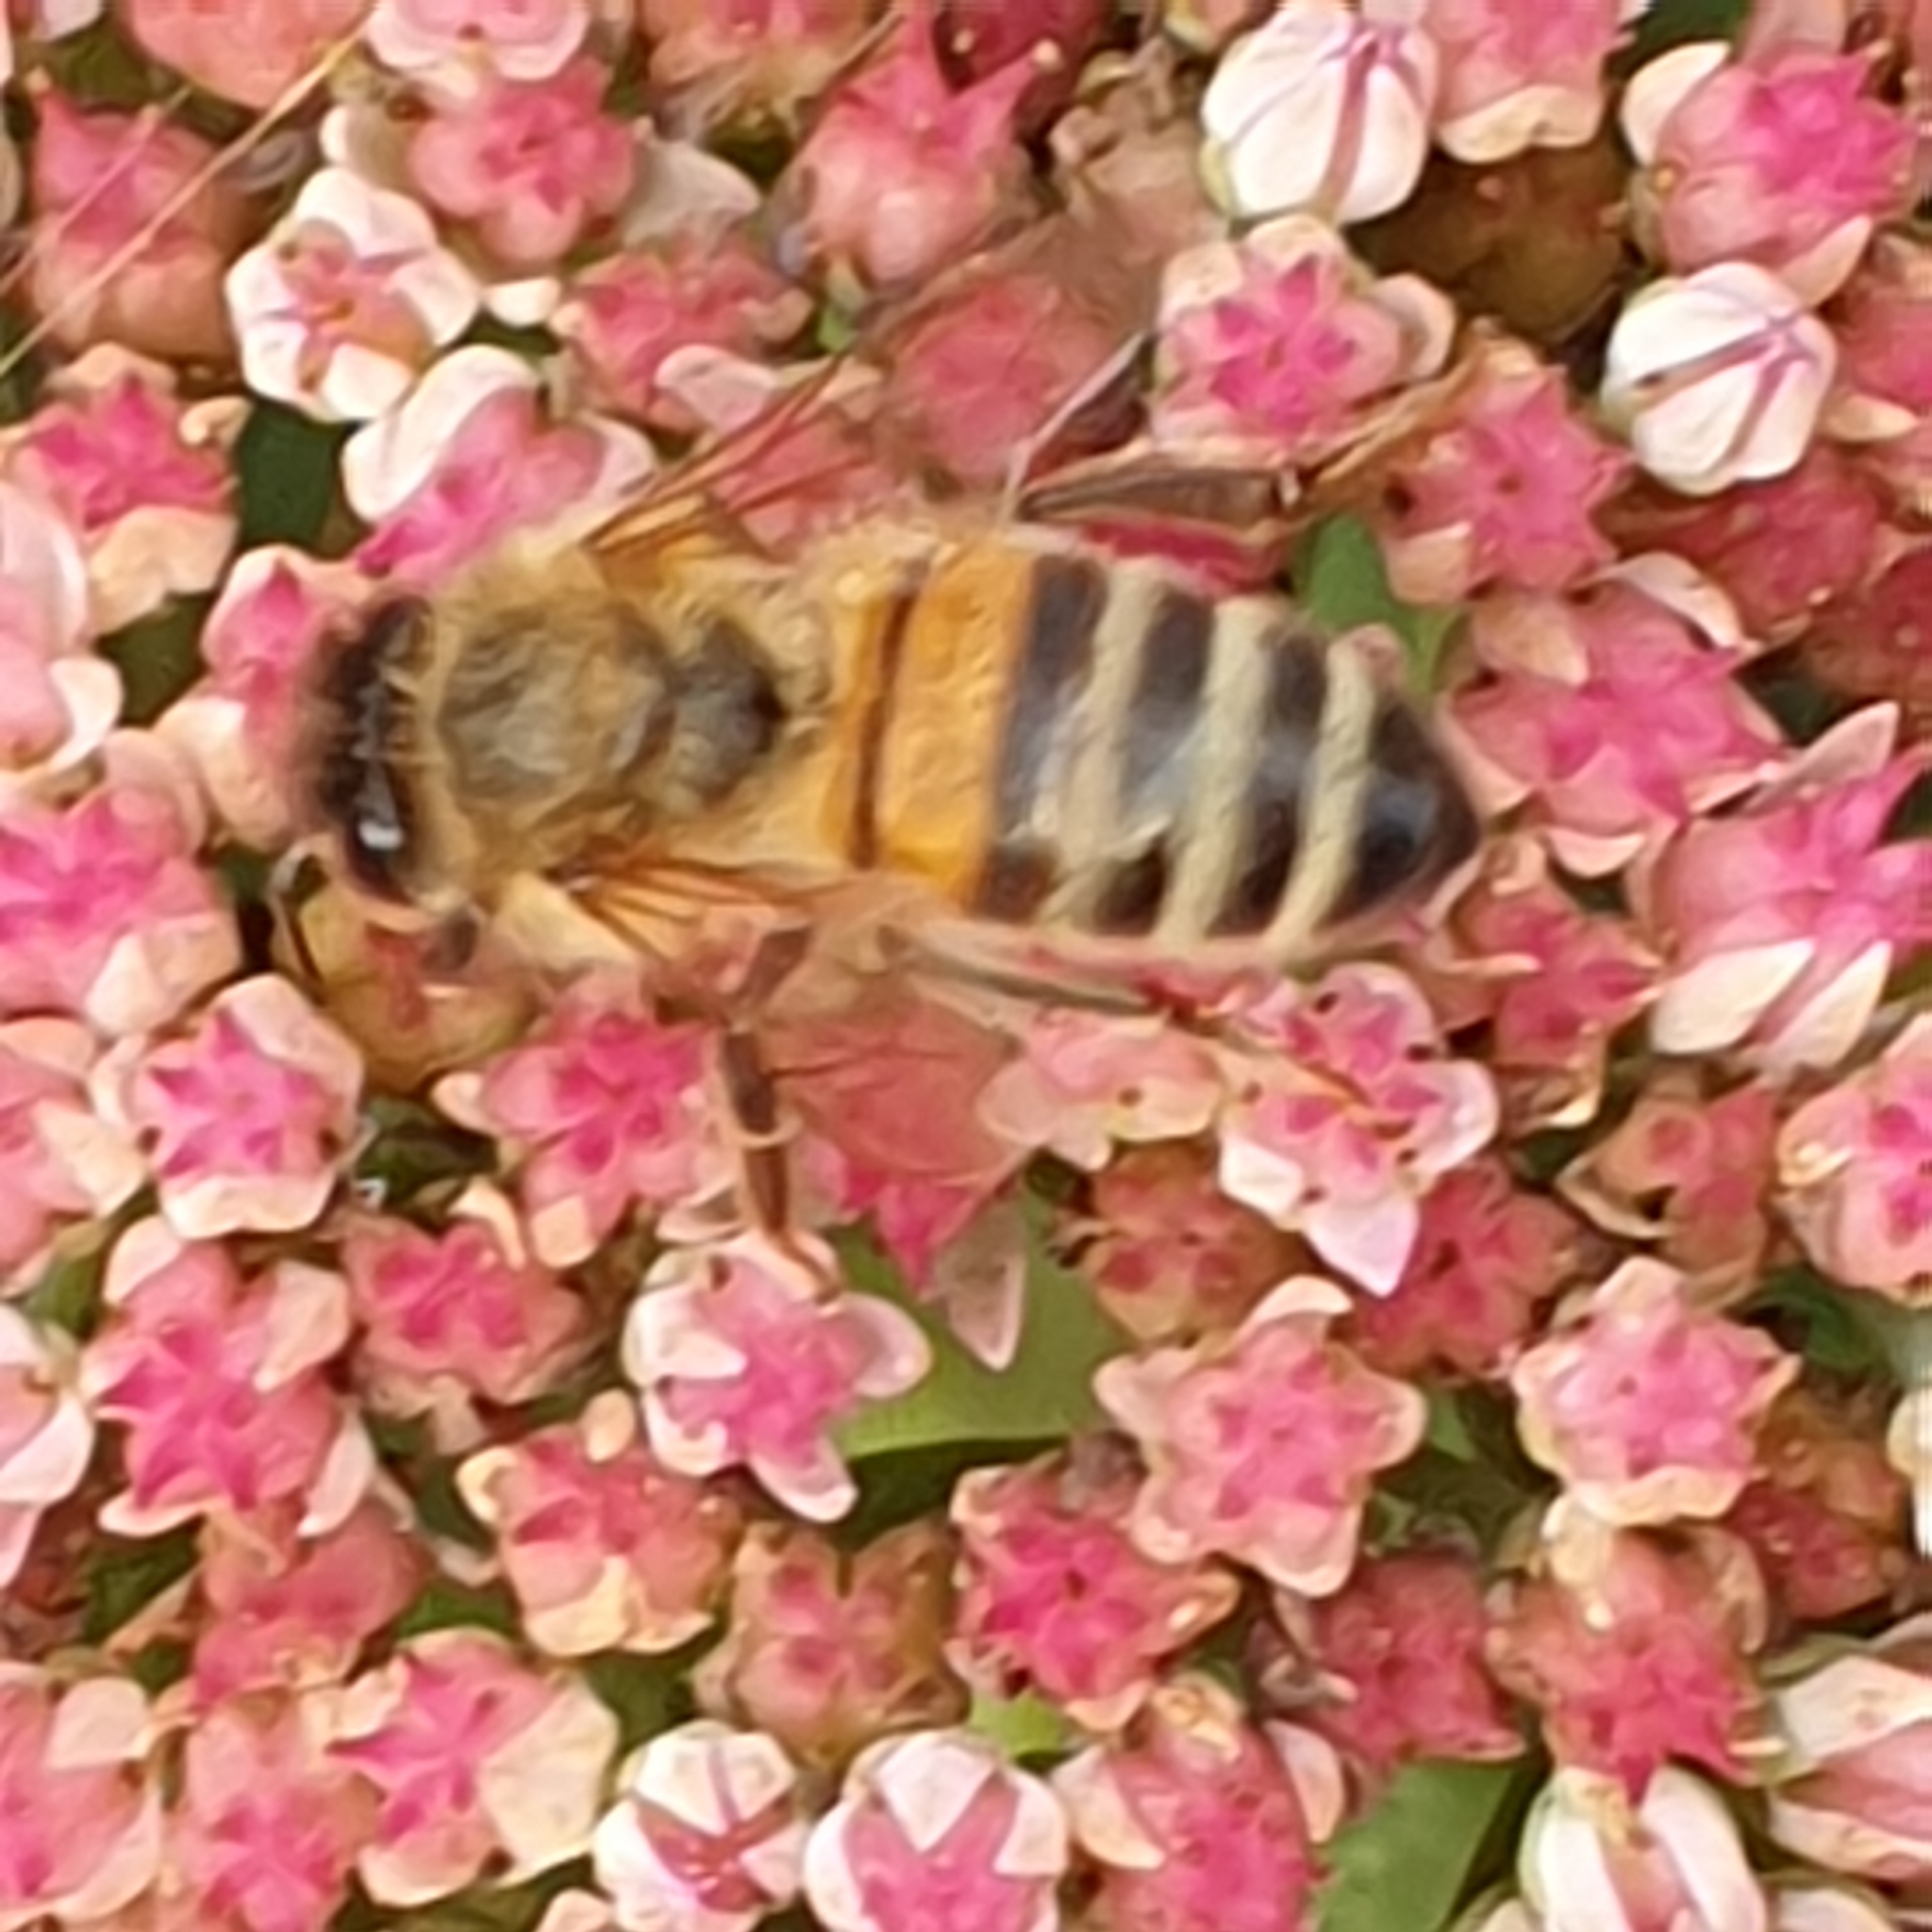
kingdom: Animalia
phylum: Arthropoda
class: Insecta
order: Hymenoptera
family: Apidae
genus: Apis
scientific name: Apis mellifera
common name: Honey bee
